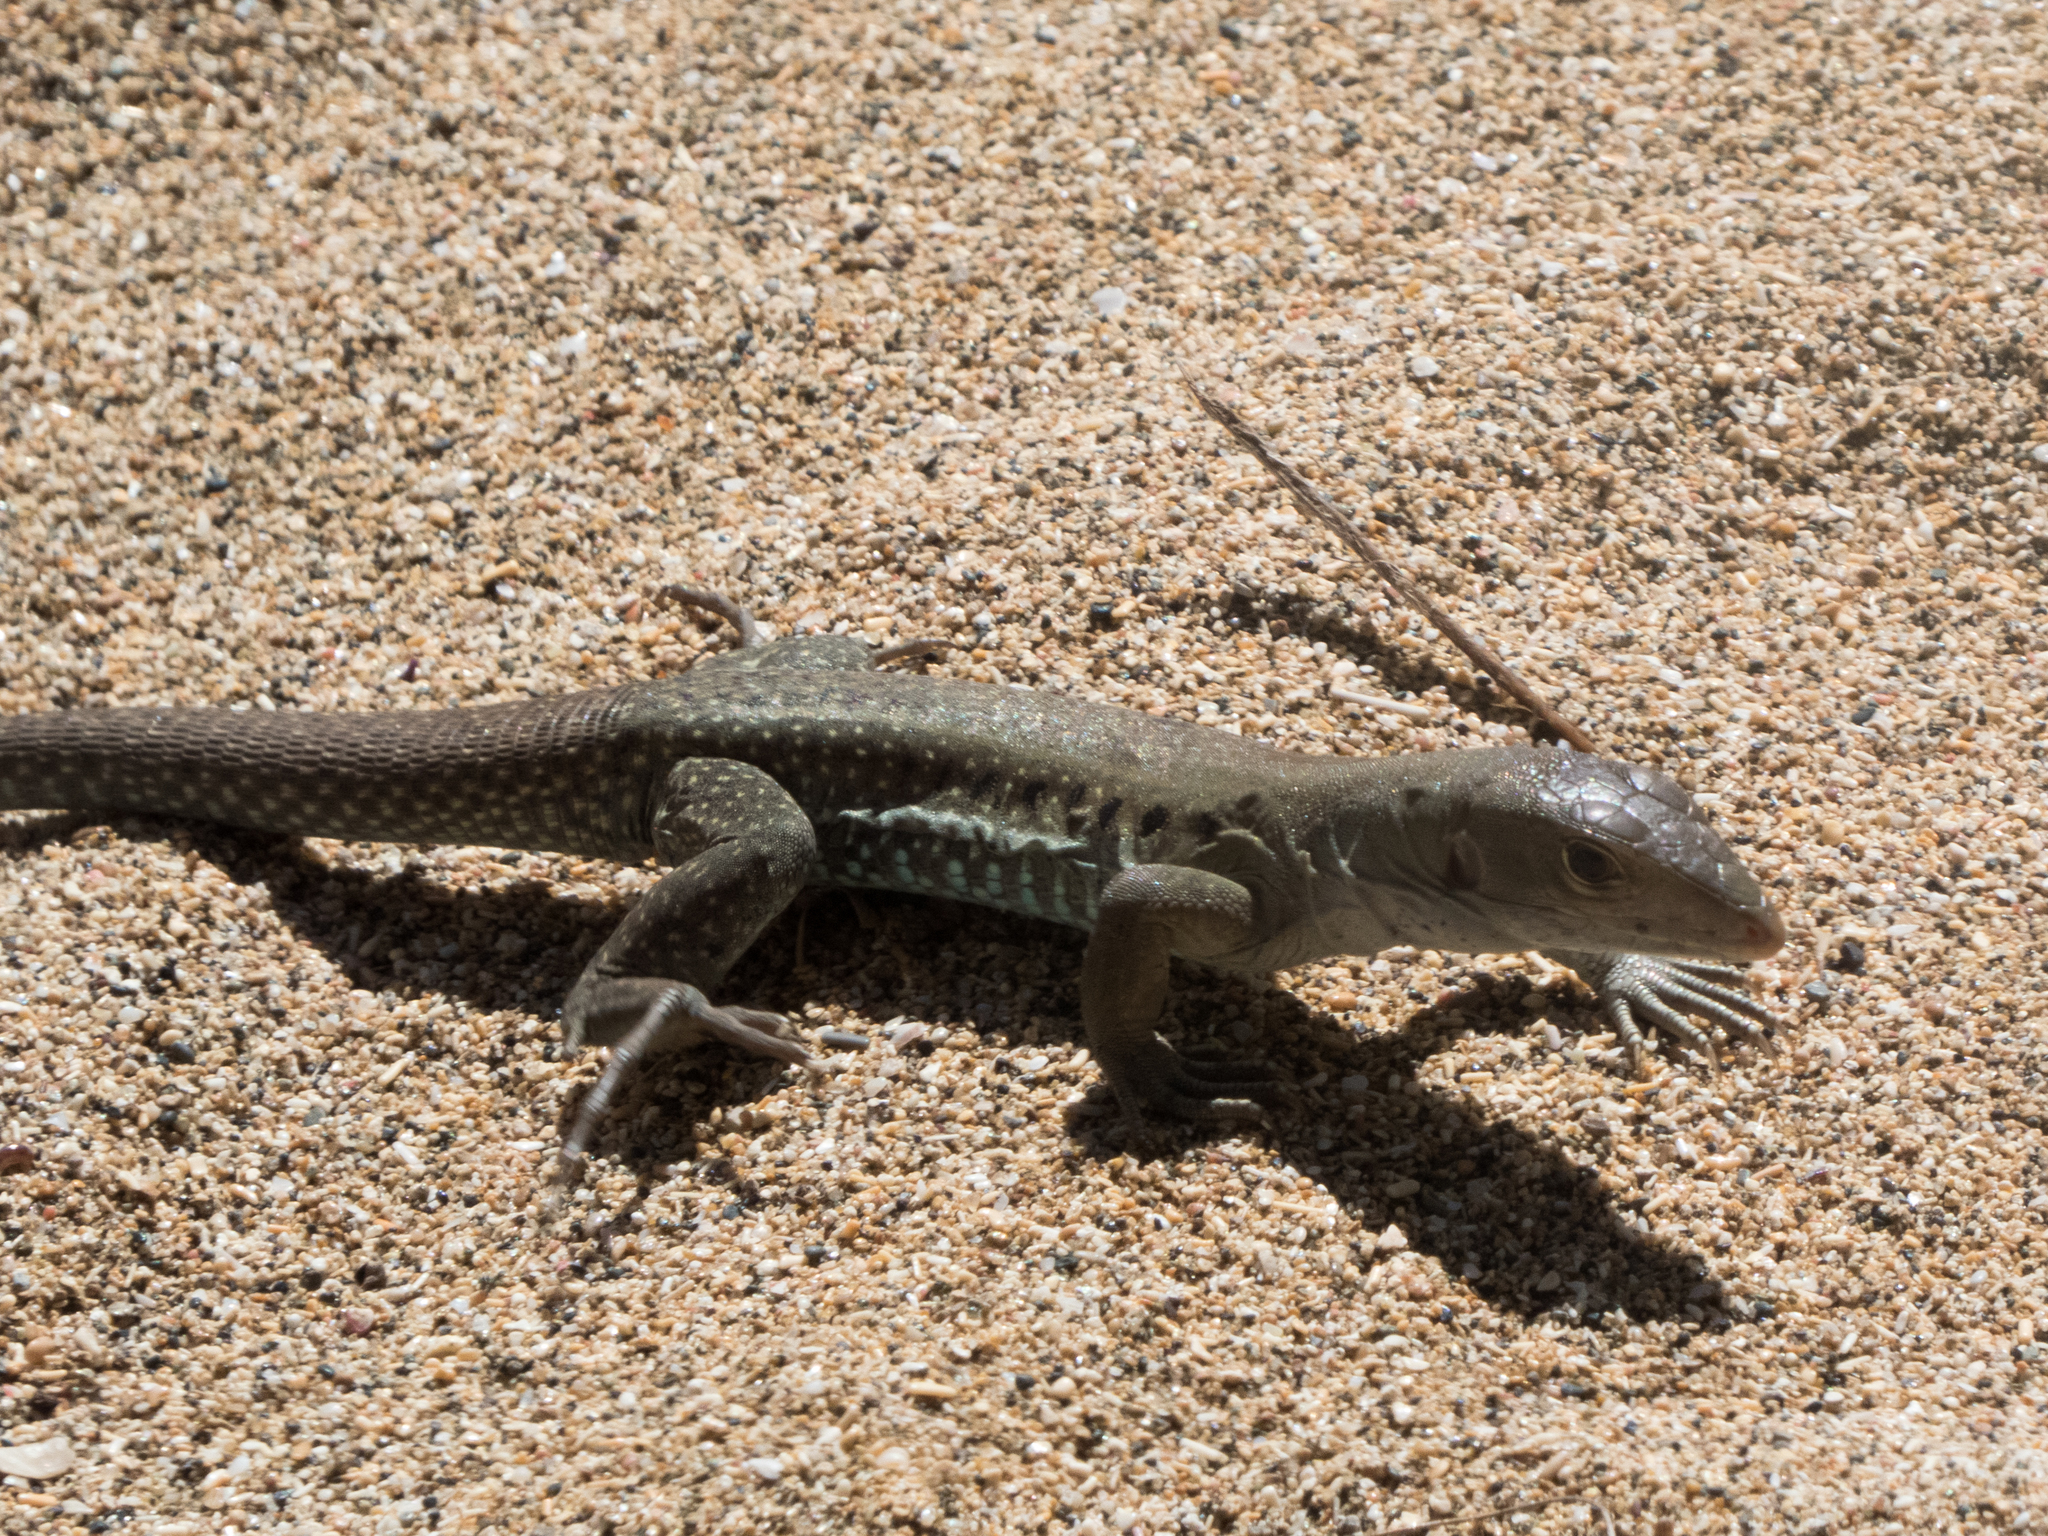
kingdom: Animalia
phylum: Chordata
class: Squamata
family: Teiidae
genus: Pholidoscelis
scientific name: Pholidoscelis exsul
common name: Common puerto rican ameiva
